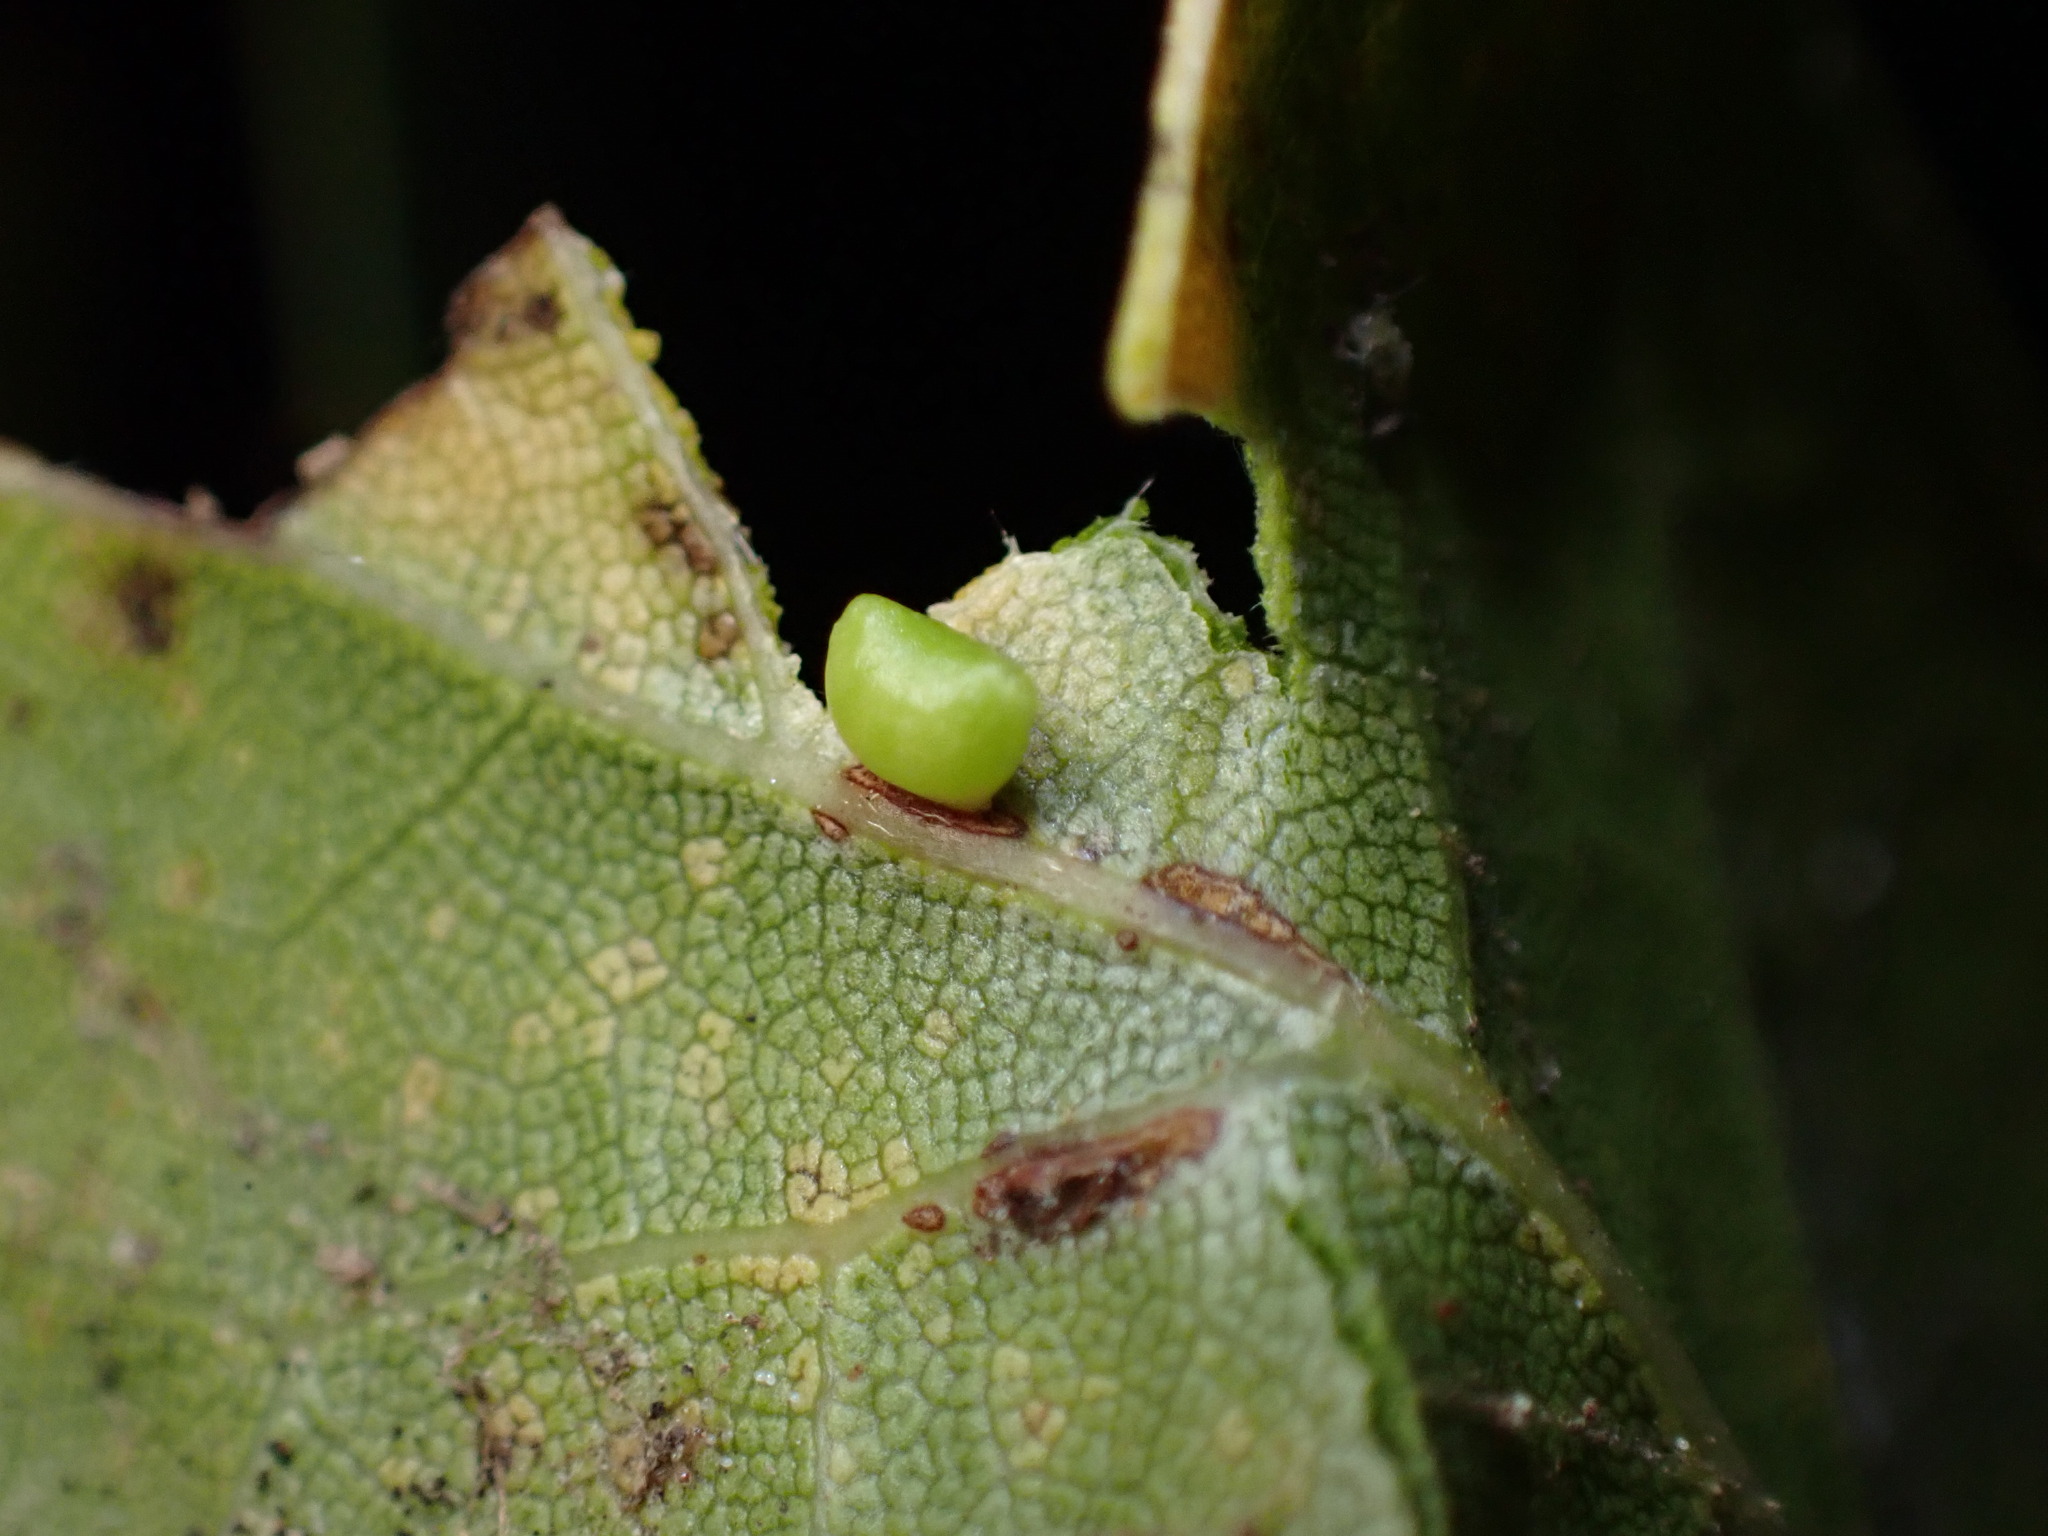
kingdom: Animalia
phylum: Arthropoda
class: Insecta
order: Hymenoptera
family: Cynipidae
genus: Dryocosmus
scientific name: Dryocosmus
